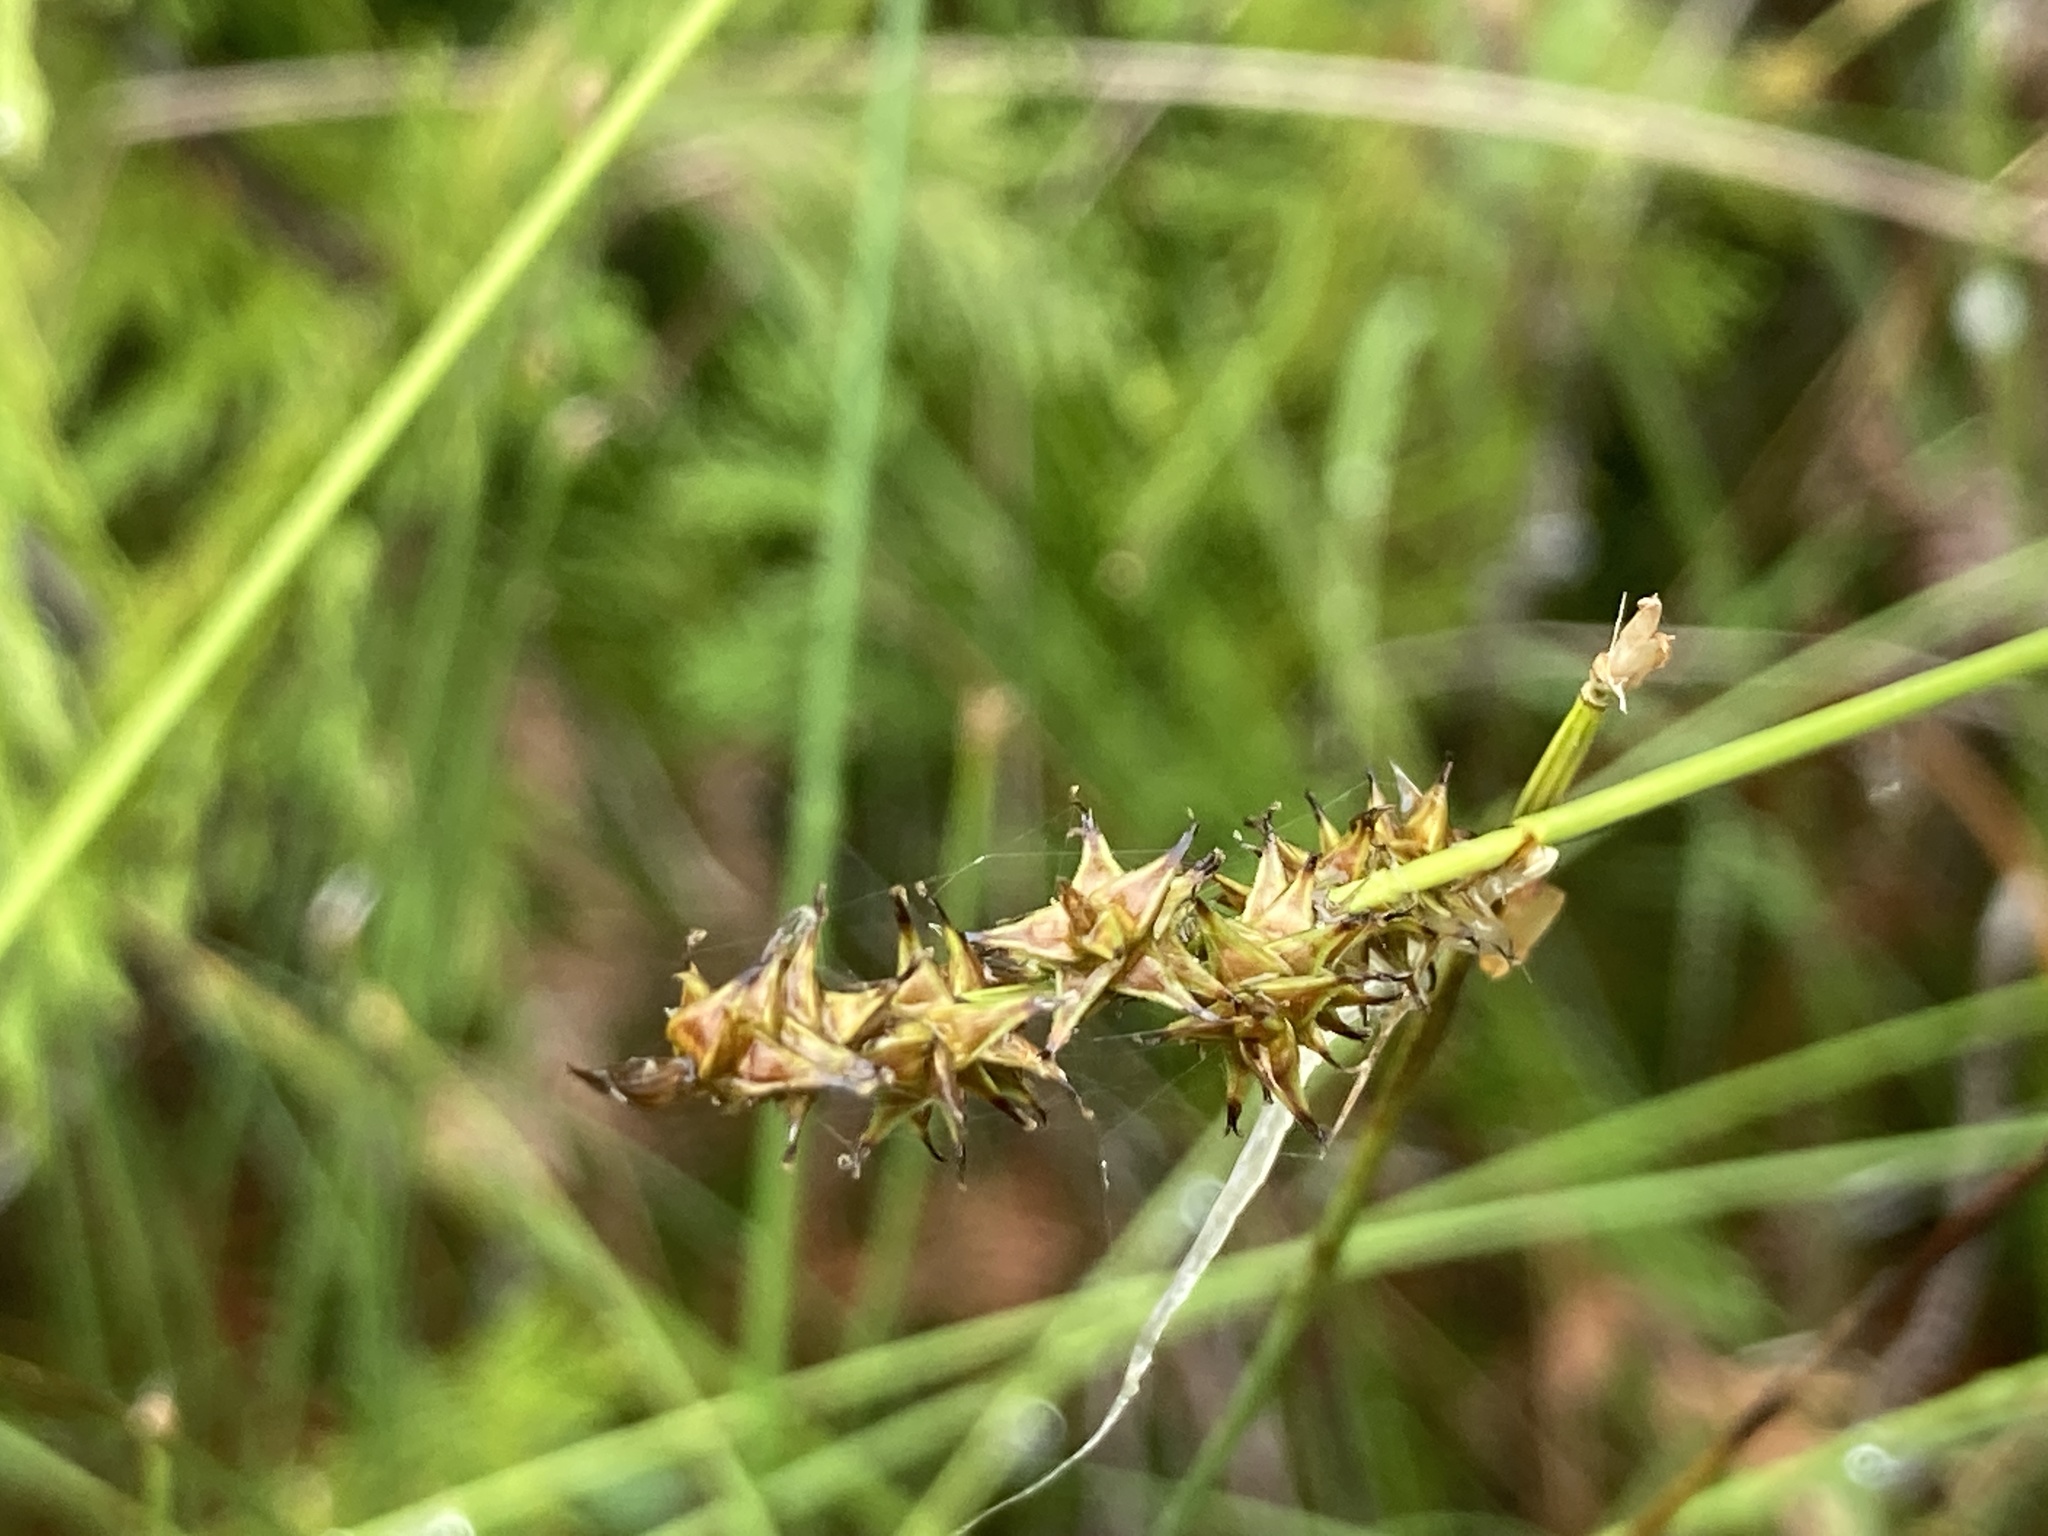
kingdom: Plantae
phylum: Tracheophyta
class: Liliopsida
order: Poales
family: Cyperaceae
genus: Carex
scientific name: Carex sterilis
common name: Dioecious sedge
